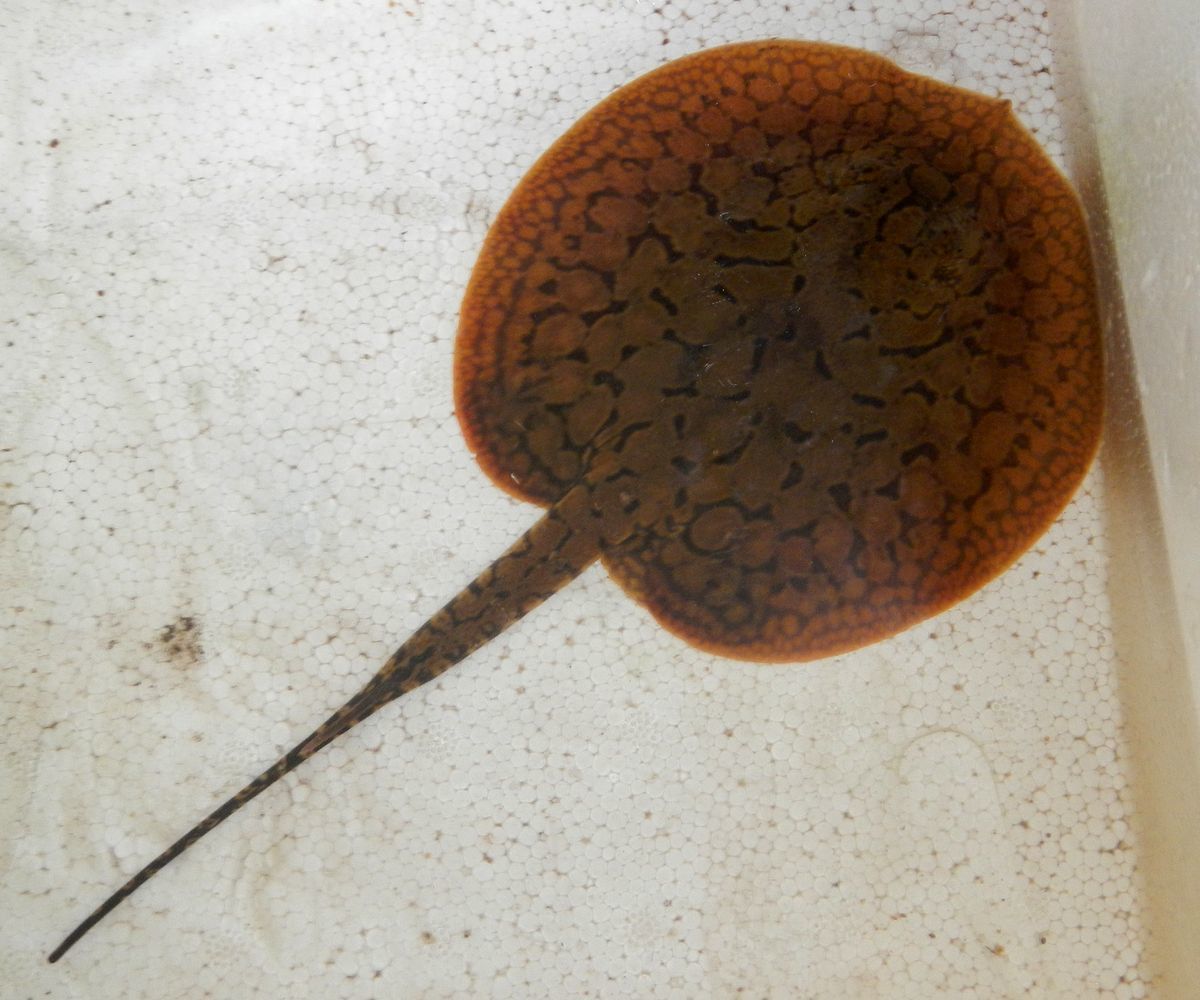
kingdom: Animalia
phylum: Chordata
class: Elasmobranchii
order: Myliobatiformes
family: Potamotrygonidae
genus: Potamotrygon
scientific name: Potamotrygon orbignyi
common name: Anglespot river stingray
